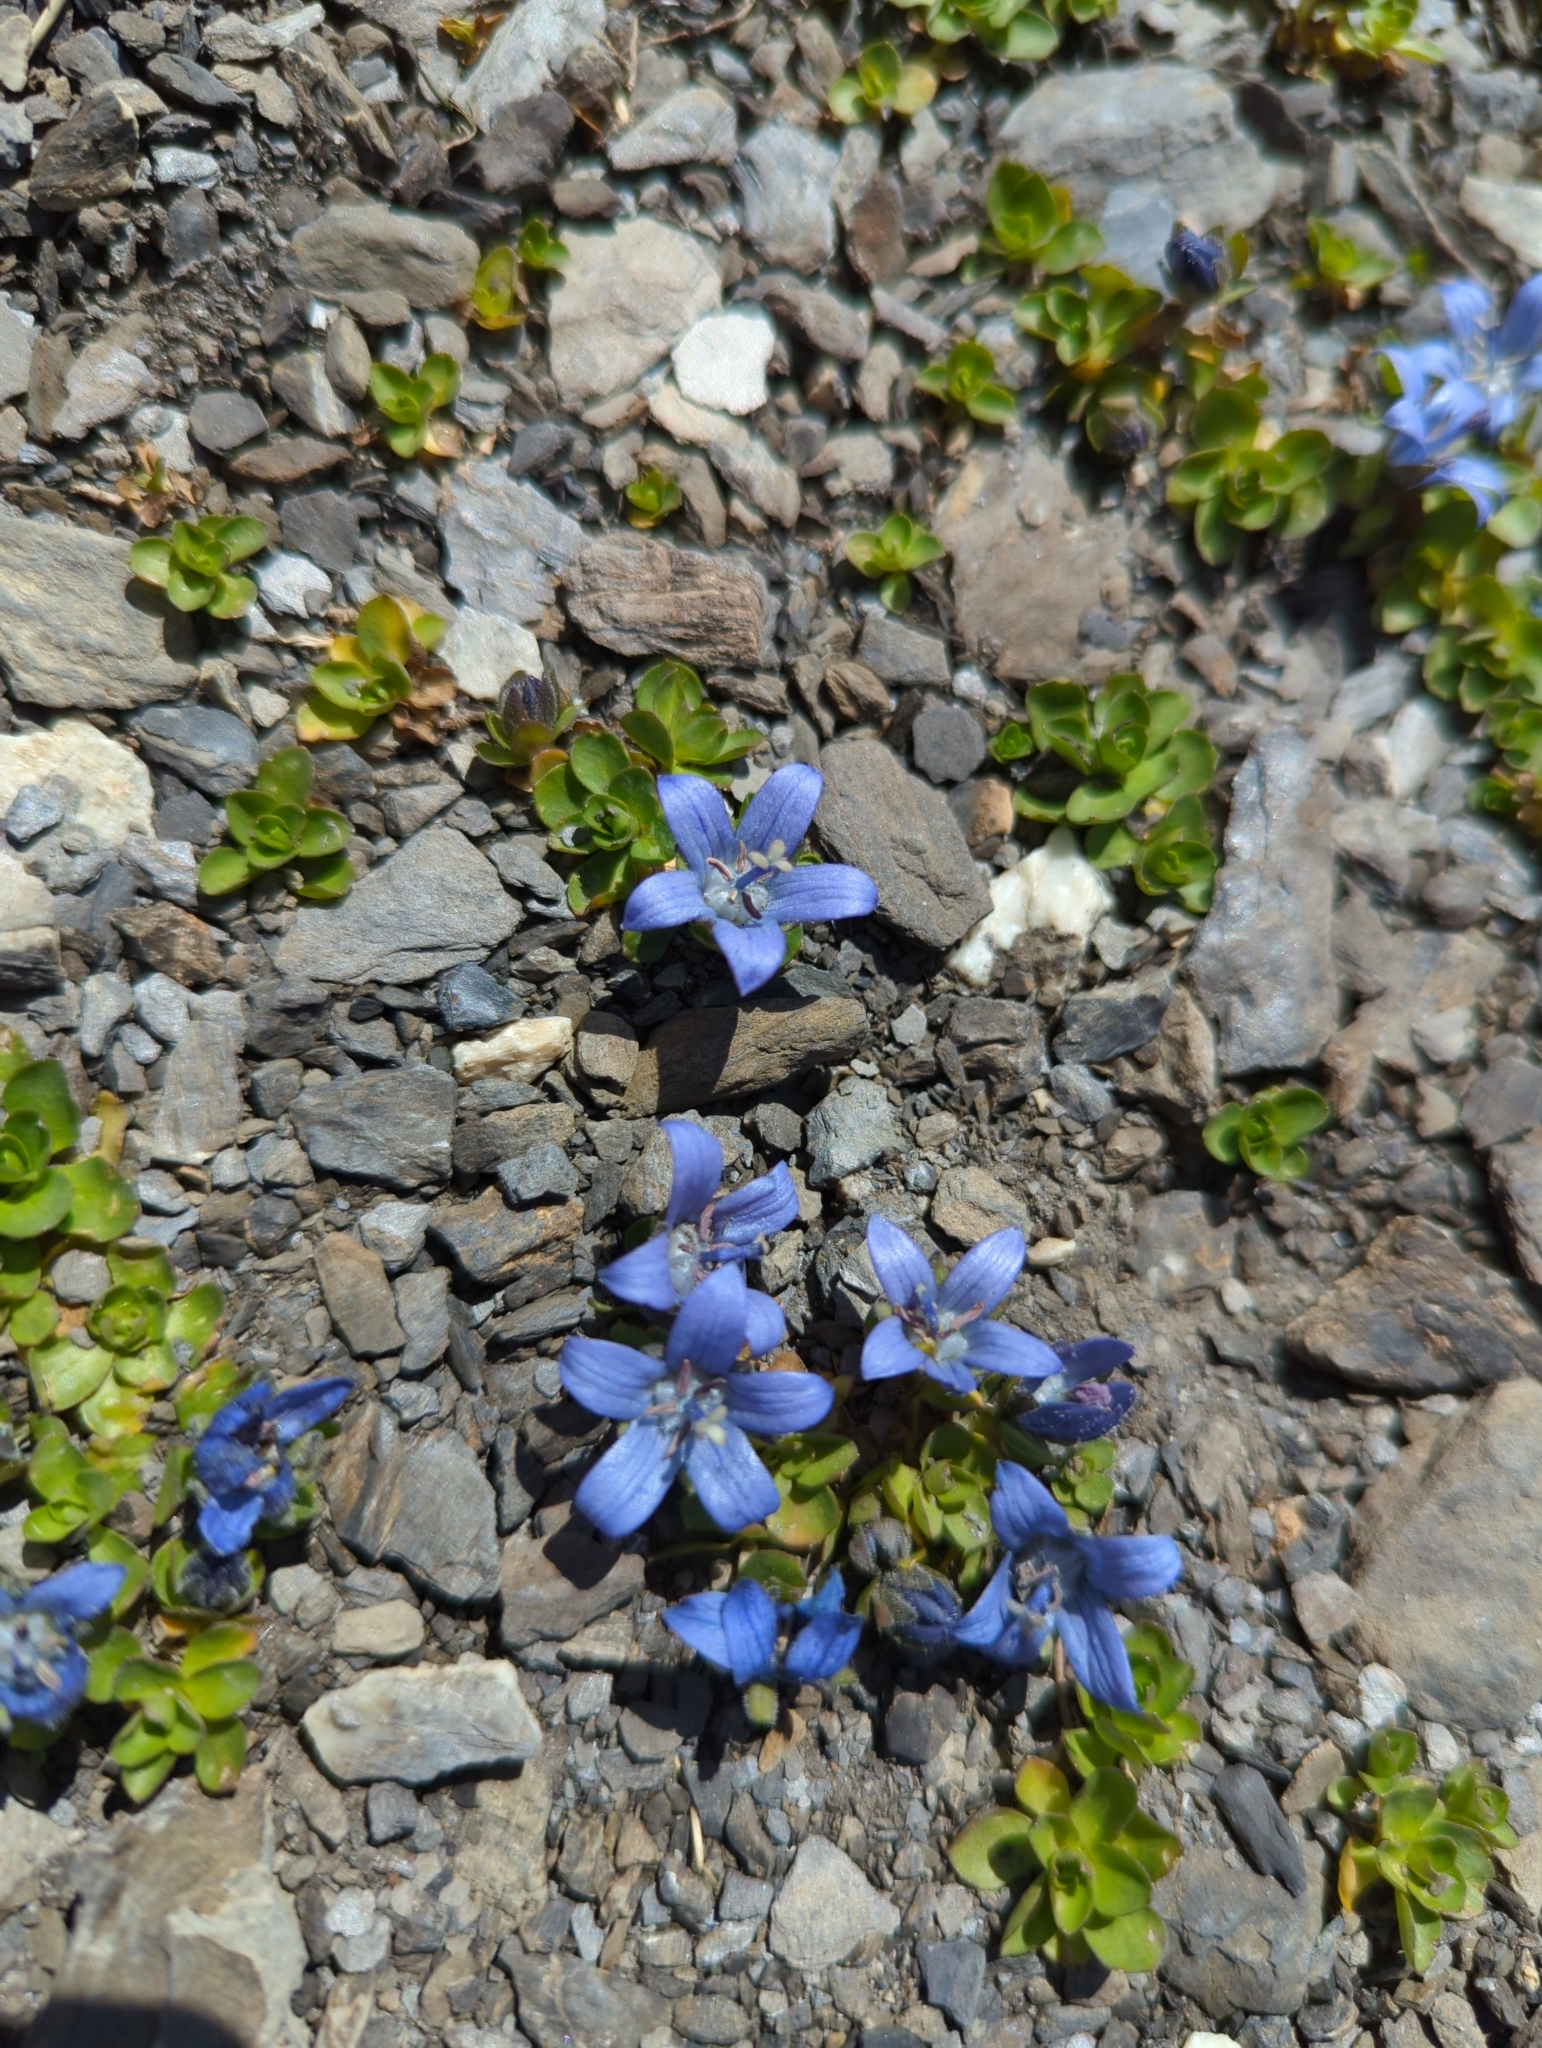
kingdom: Plantae
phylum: Tracheophyta
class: Magnoliopsida
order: Asterales
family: Campanulaceae
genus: Campanula
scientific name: Campanula cenisia
